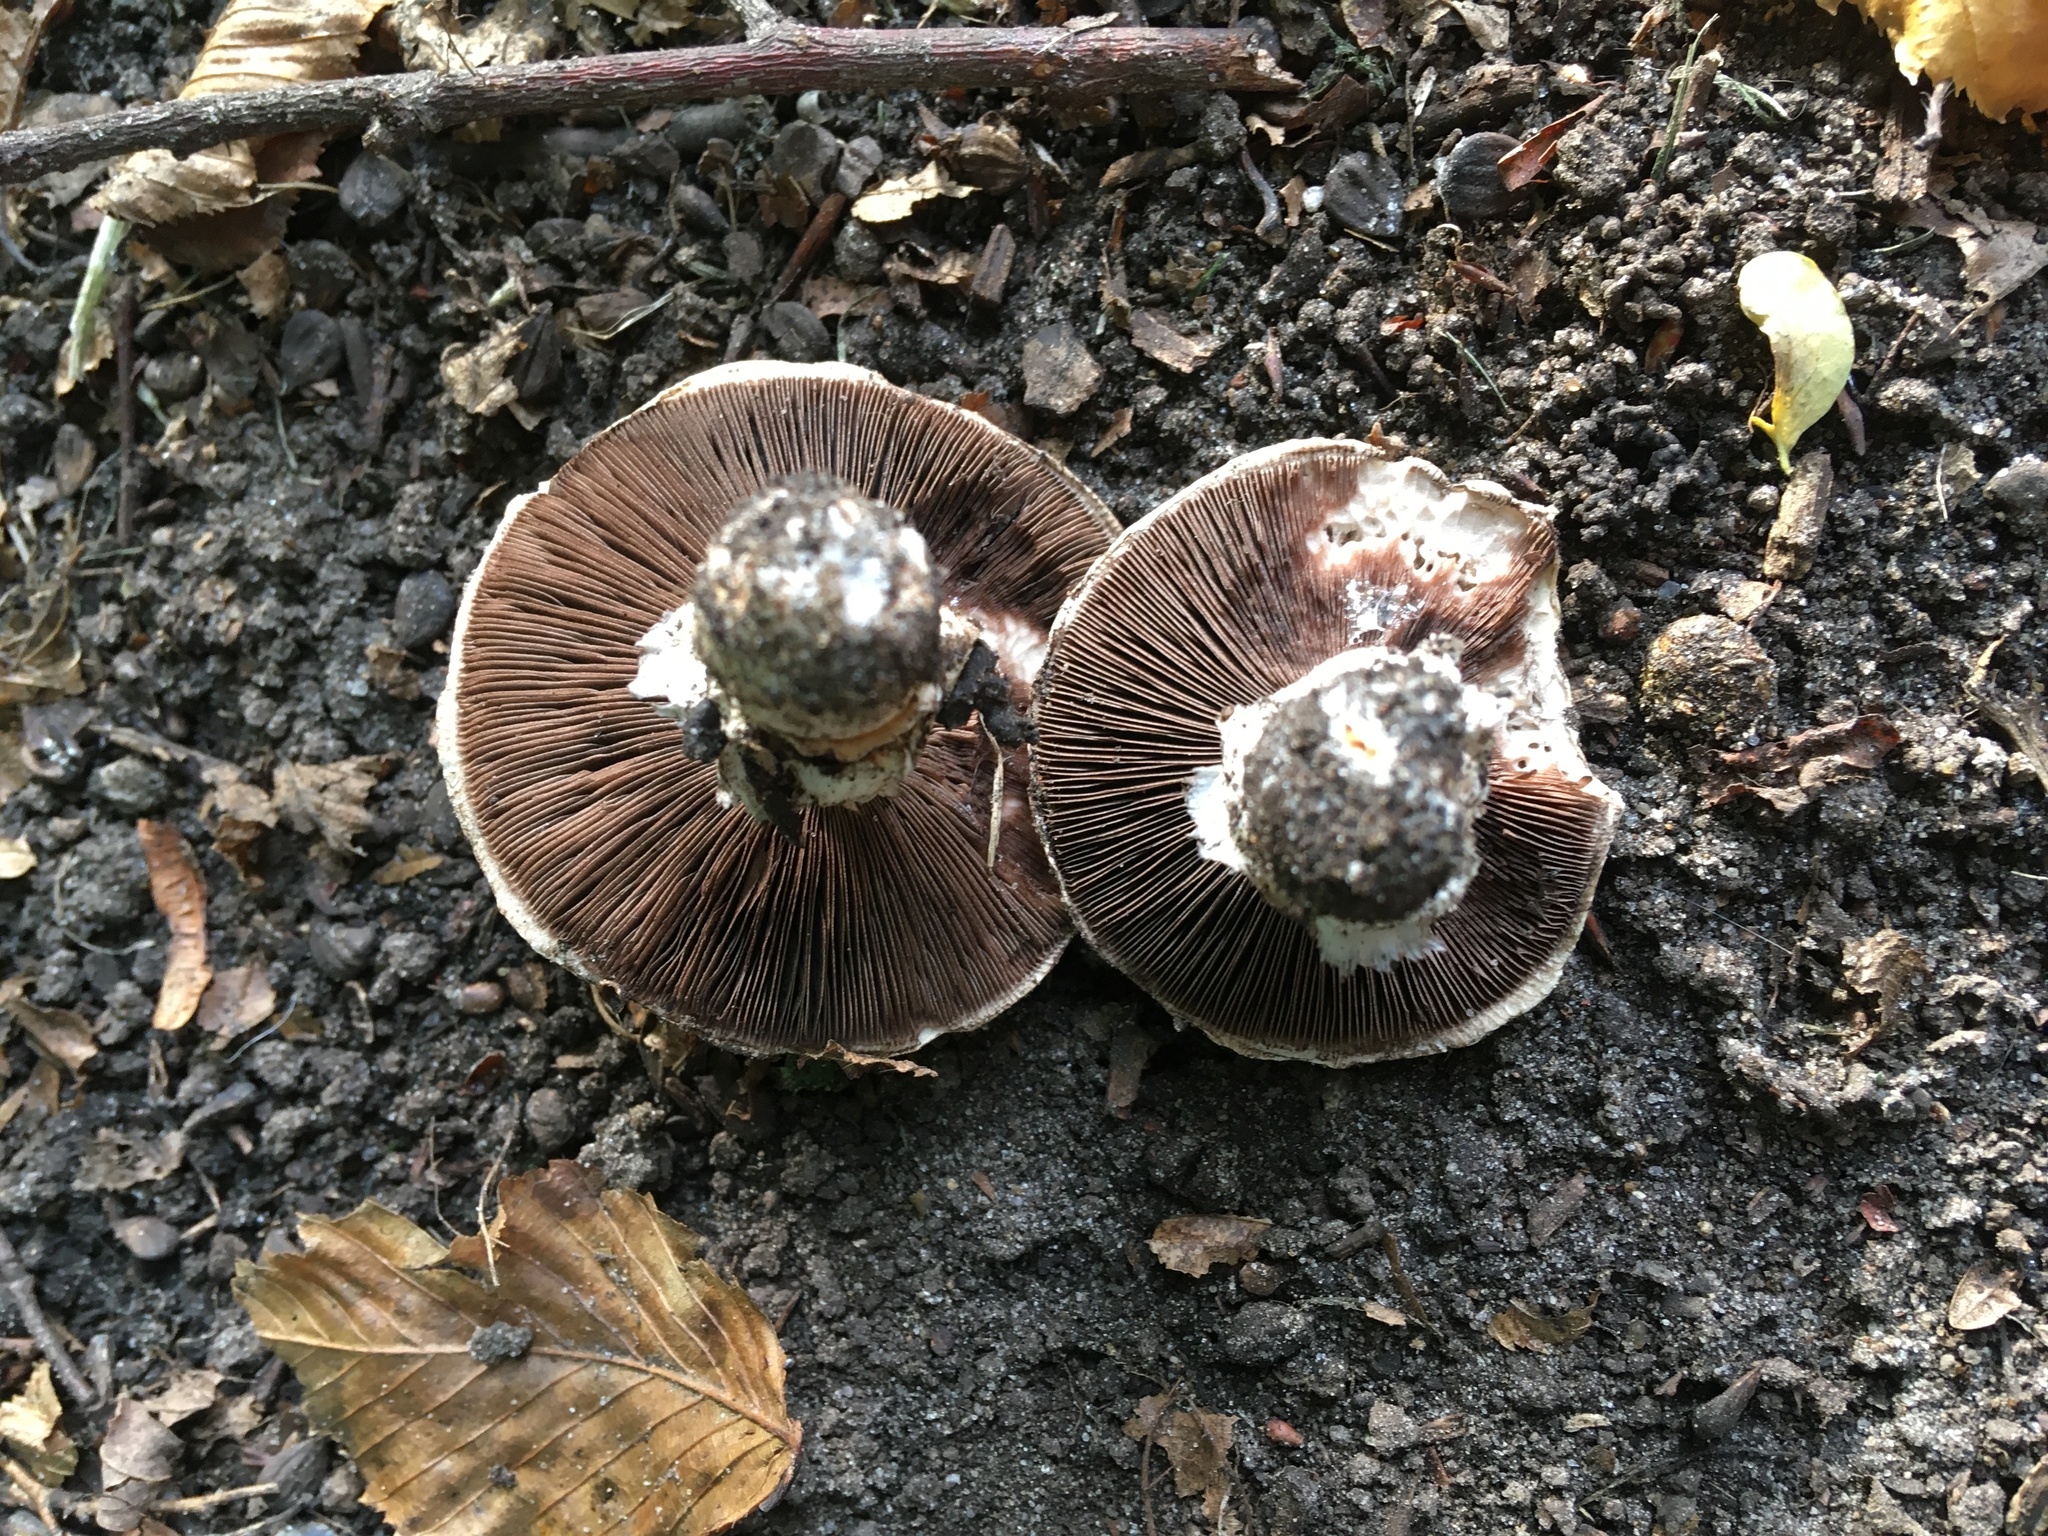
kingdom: Fungi
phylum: Basidiomycota
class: Agaricomycetes
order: Agaricales
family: Agaricaceae
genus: Agaricus
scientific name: Agaricus bitorquis
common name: Pavement mushroom
